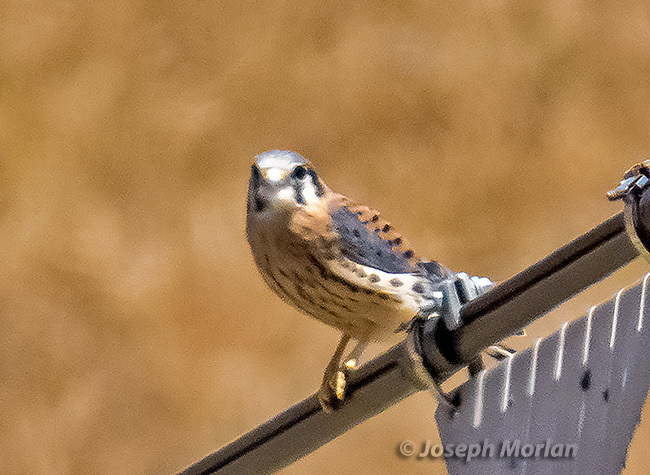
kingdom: Animalia
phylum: Chordata
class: Aves
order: Falconiformes
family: Falconidae
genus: Falco
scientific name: Falco sparverius
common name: American kestrel
